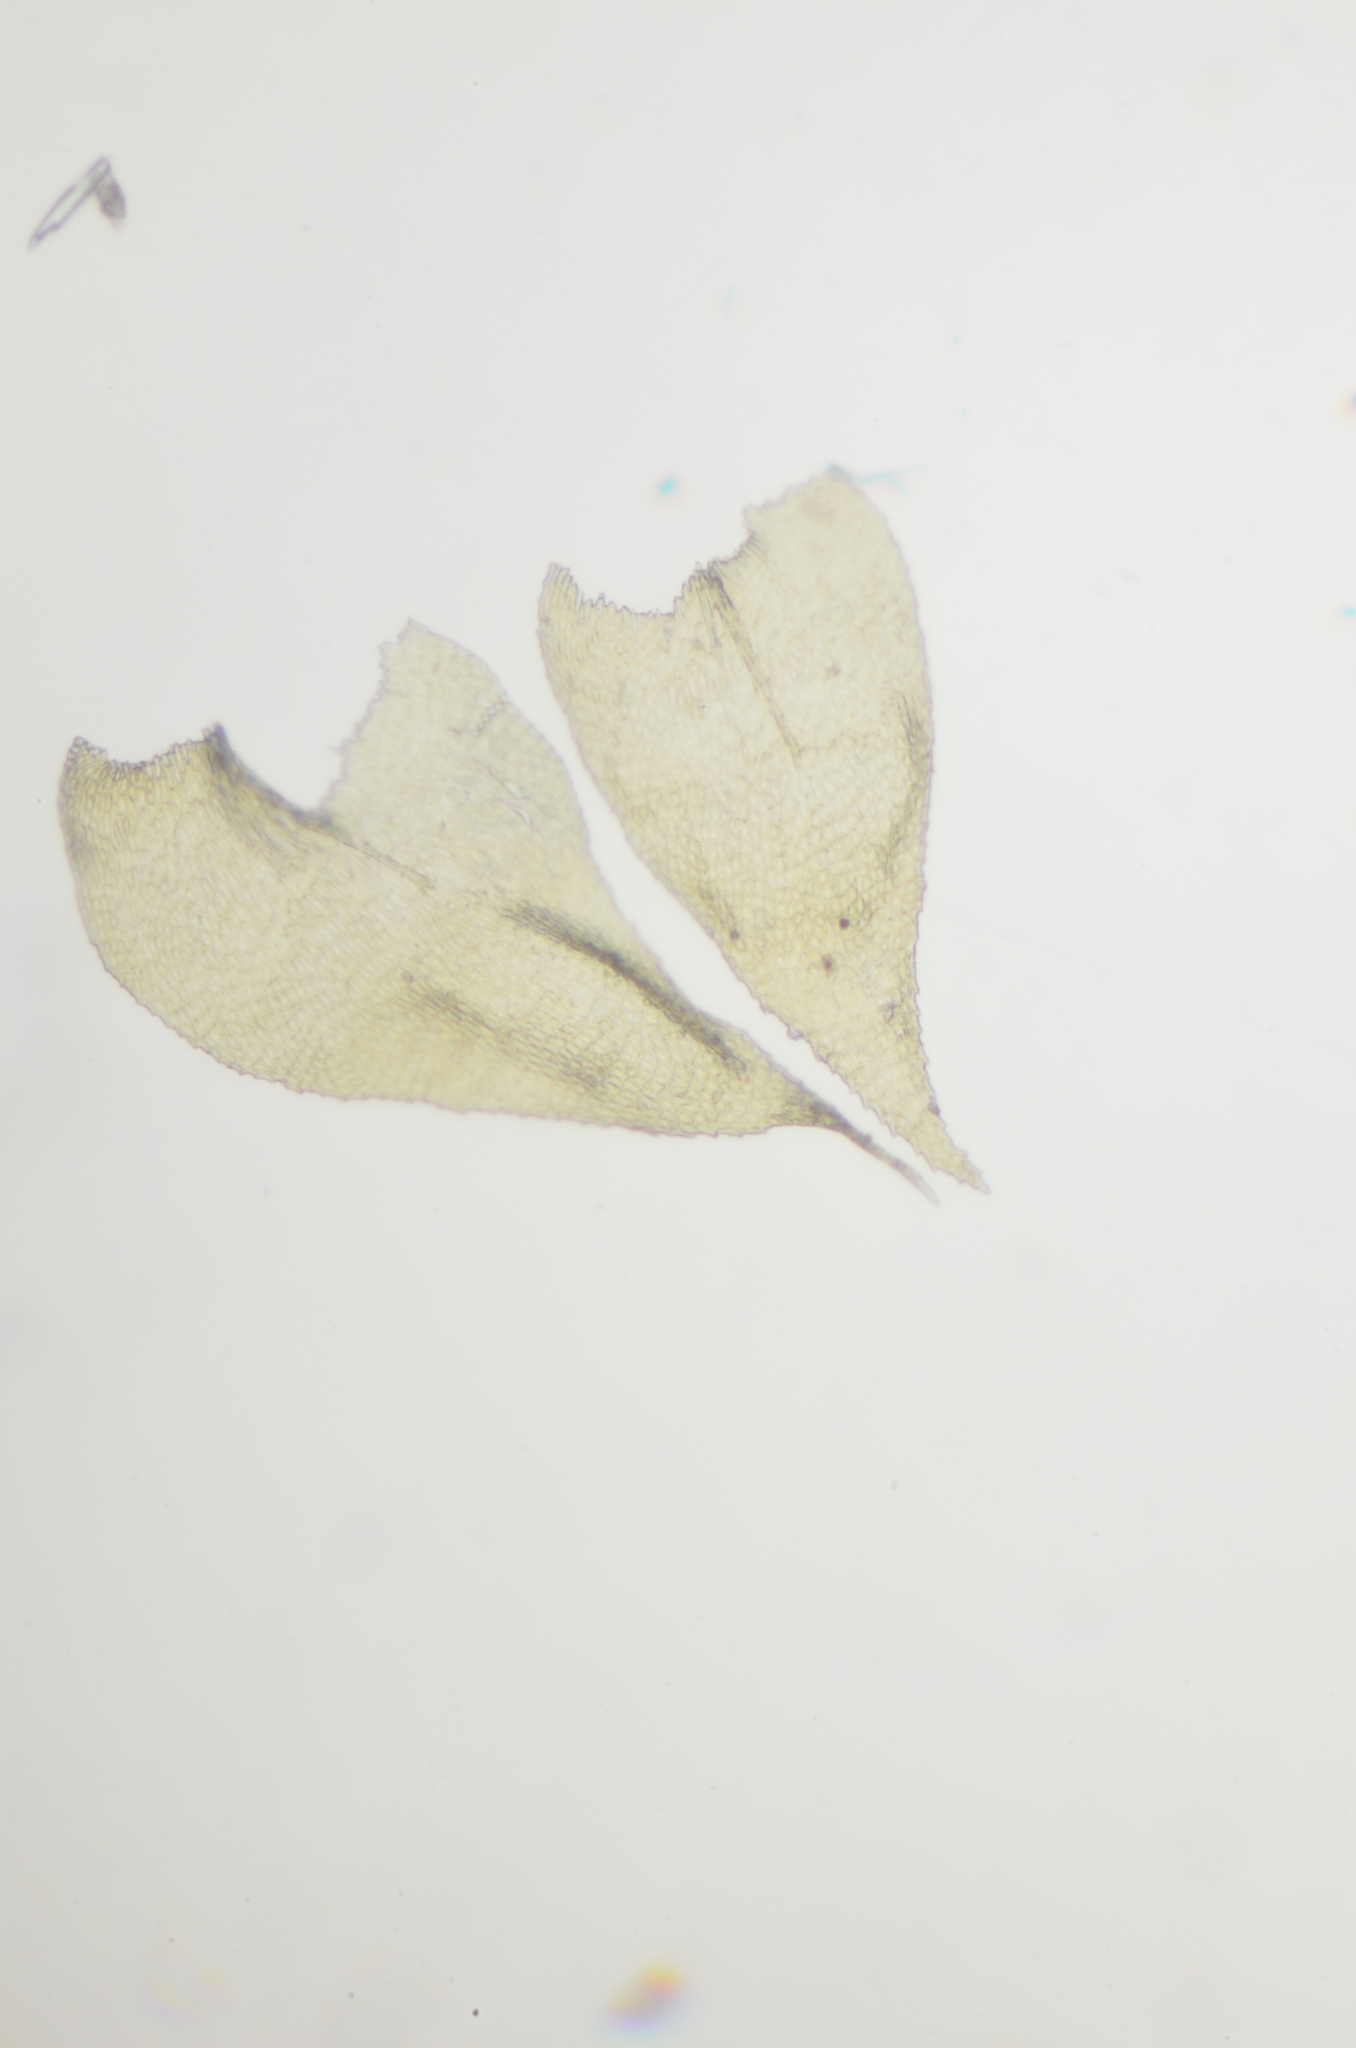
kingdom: Plantae
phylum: Bryophyta
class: Bryopsida
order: Hypnales
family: Heterocladiellaceae
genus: Heterocladiella
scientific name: Heterocladiella procurrens
